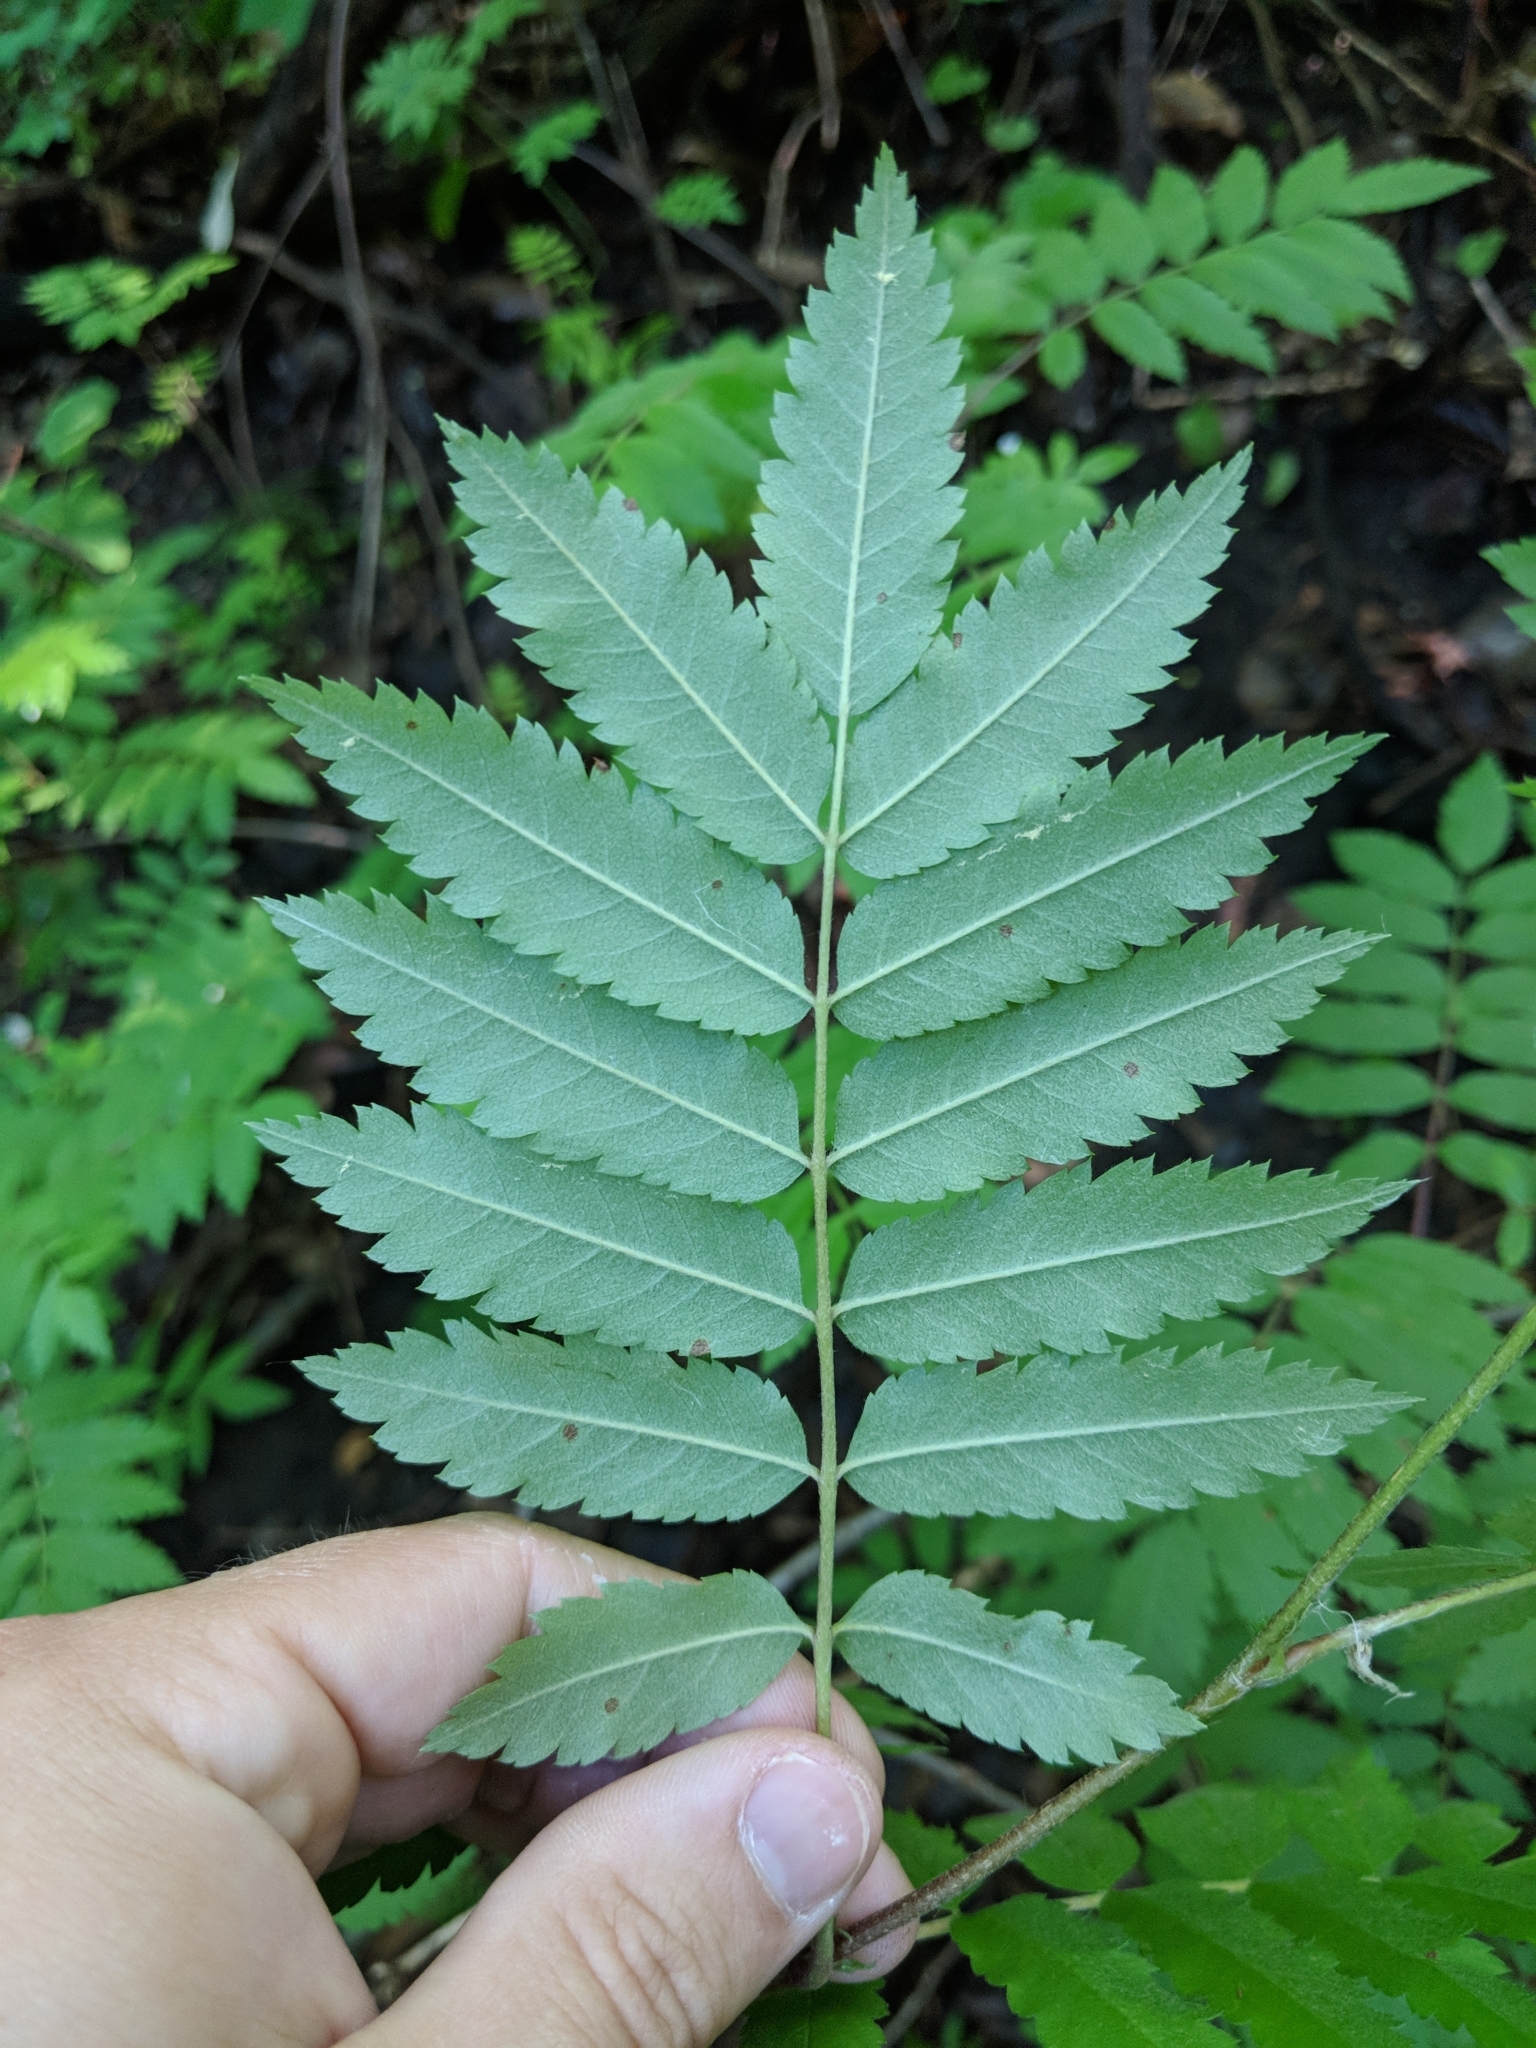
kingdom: Plantae
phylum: Tracheophyta
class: Magnoliopsida
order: Rosales
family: Rosaceae
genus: Sorbus
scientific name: Sorbus aucuparia
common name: Rowan
